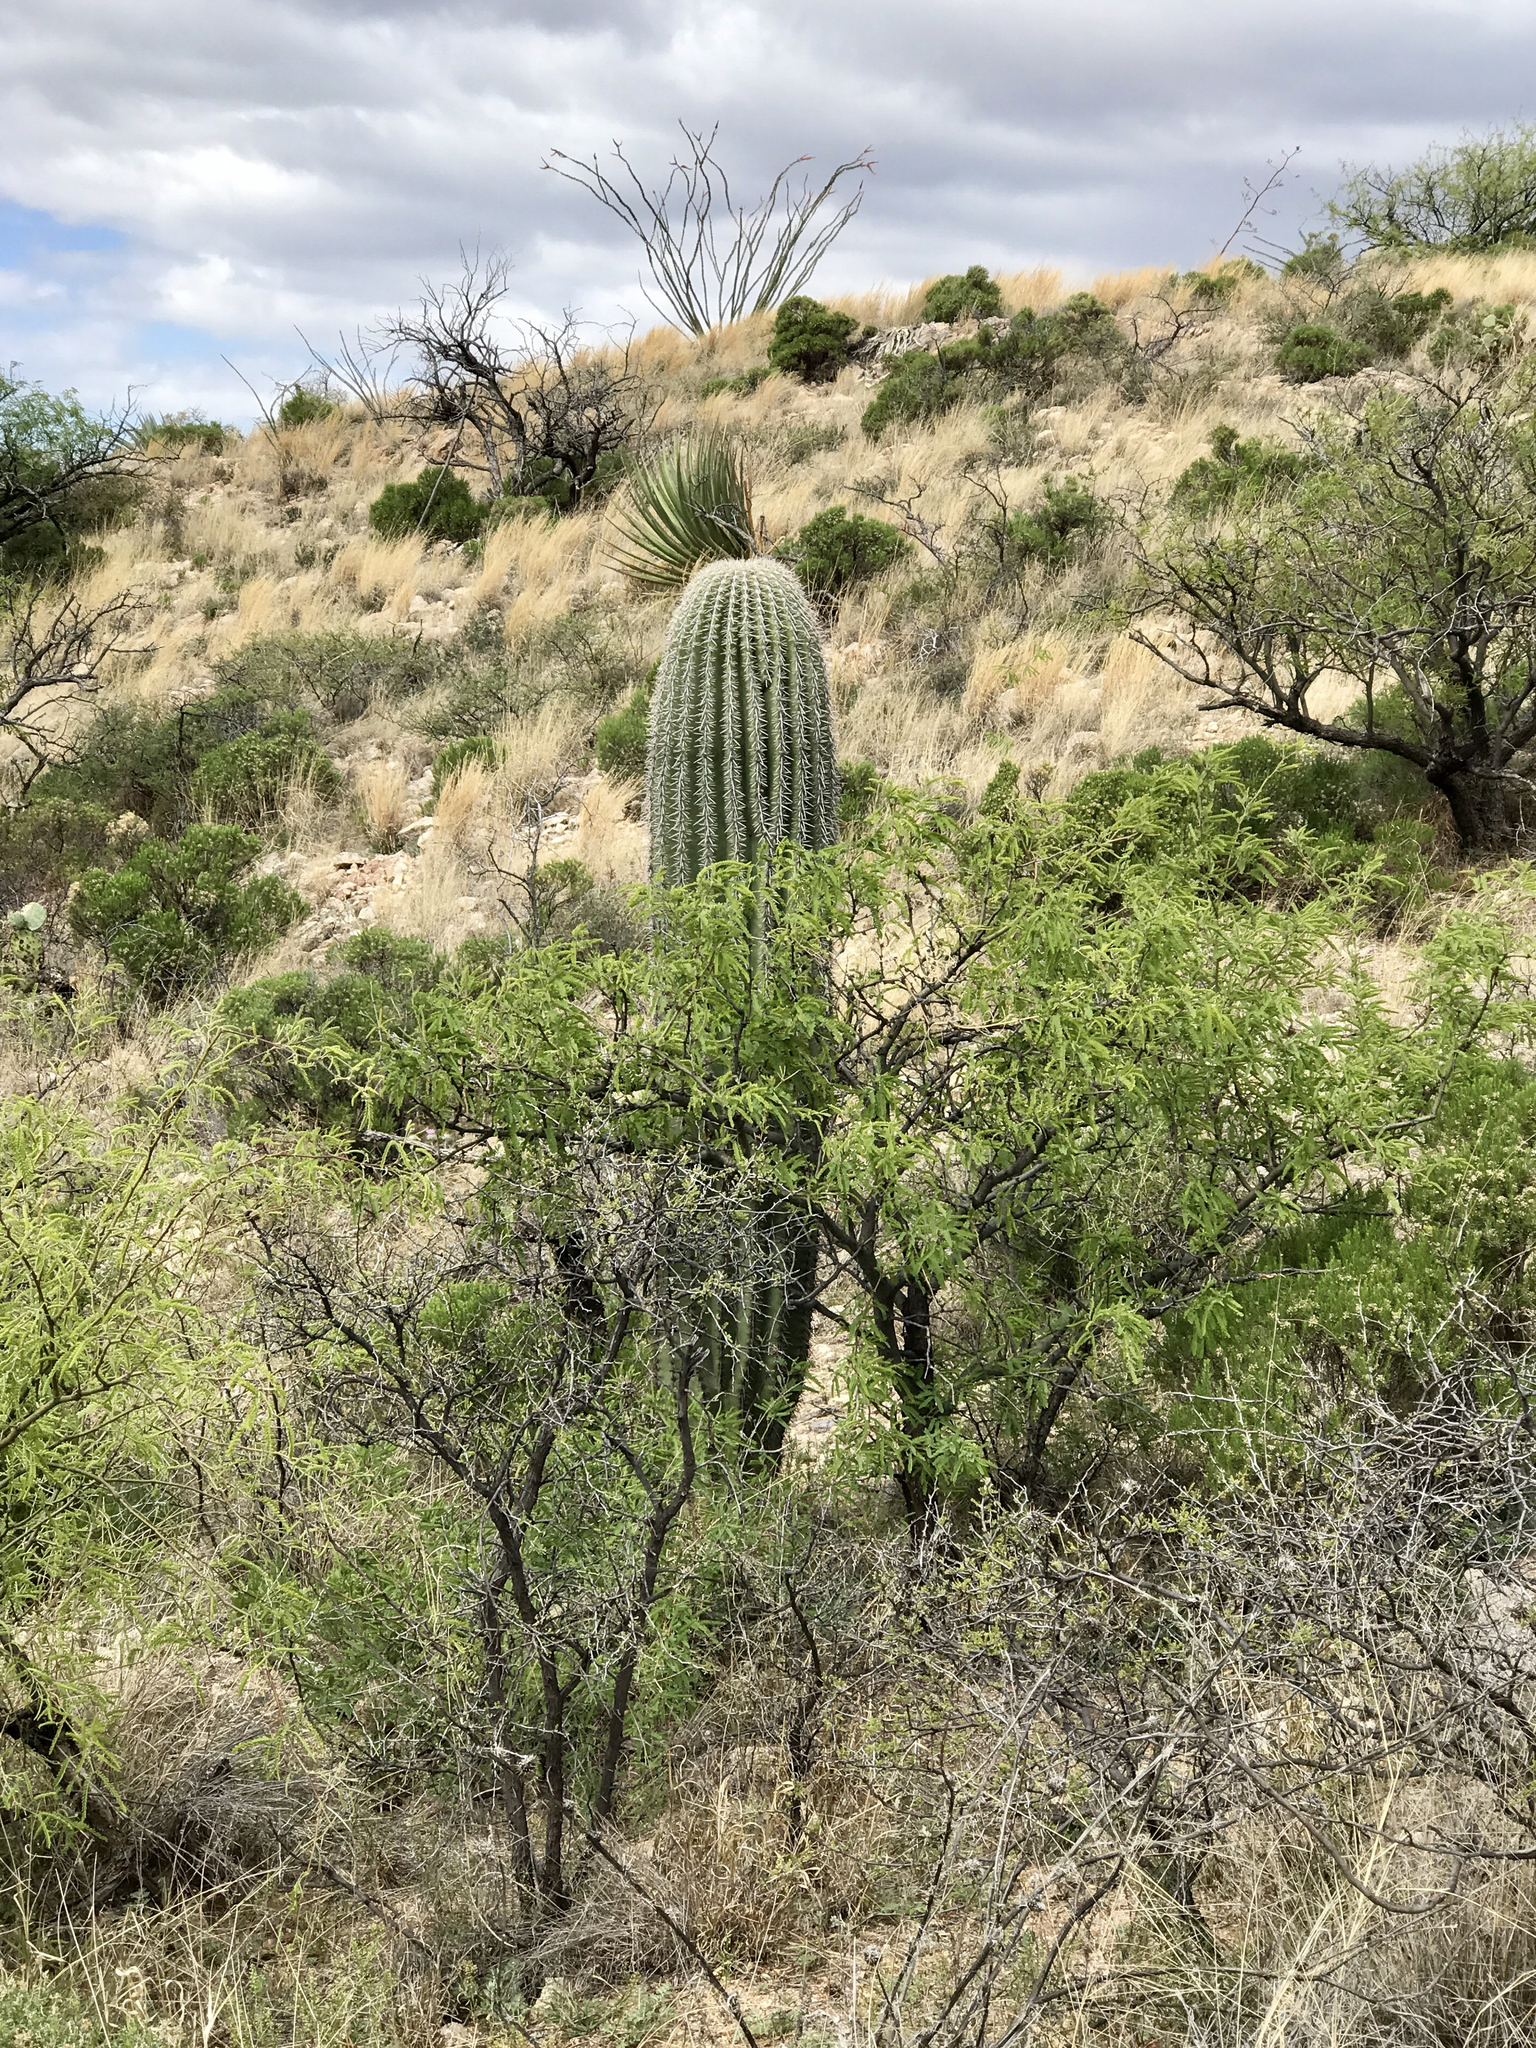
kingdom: Plantae
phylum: Tracheophyta
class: Magnoliopsida
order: Caryophyllales
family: Cactaceae
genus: Carnegiea
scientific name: Carnegiea gigantea
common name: Saguaro
